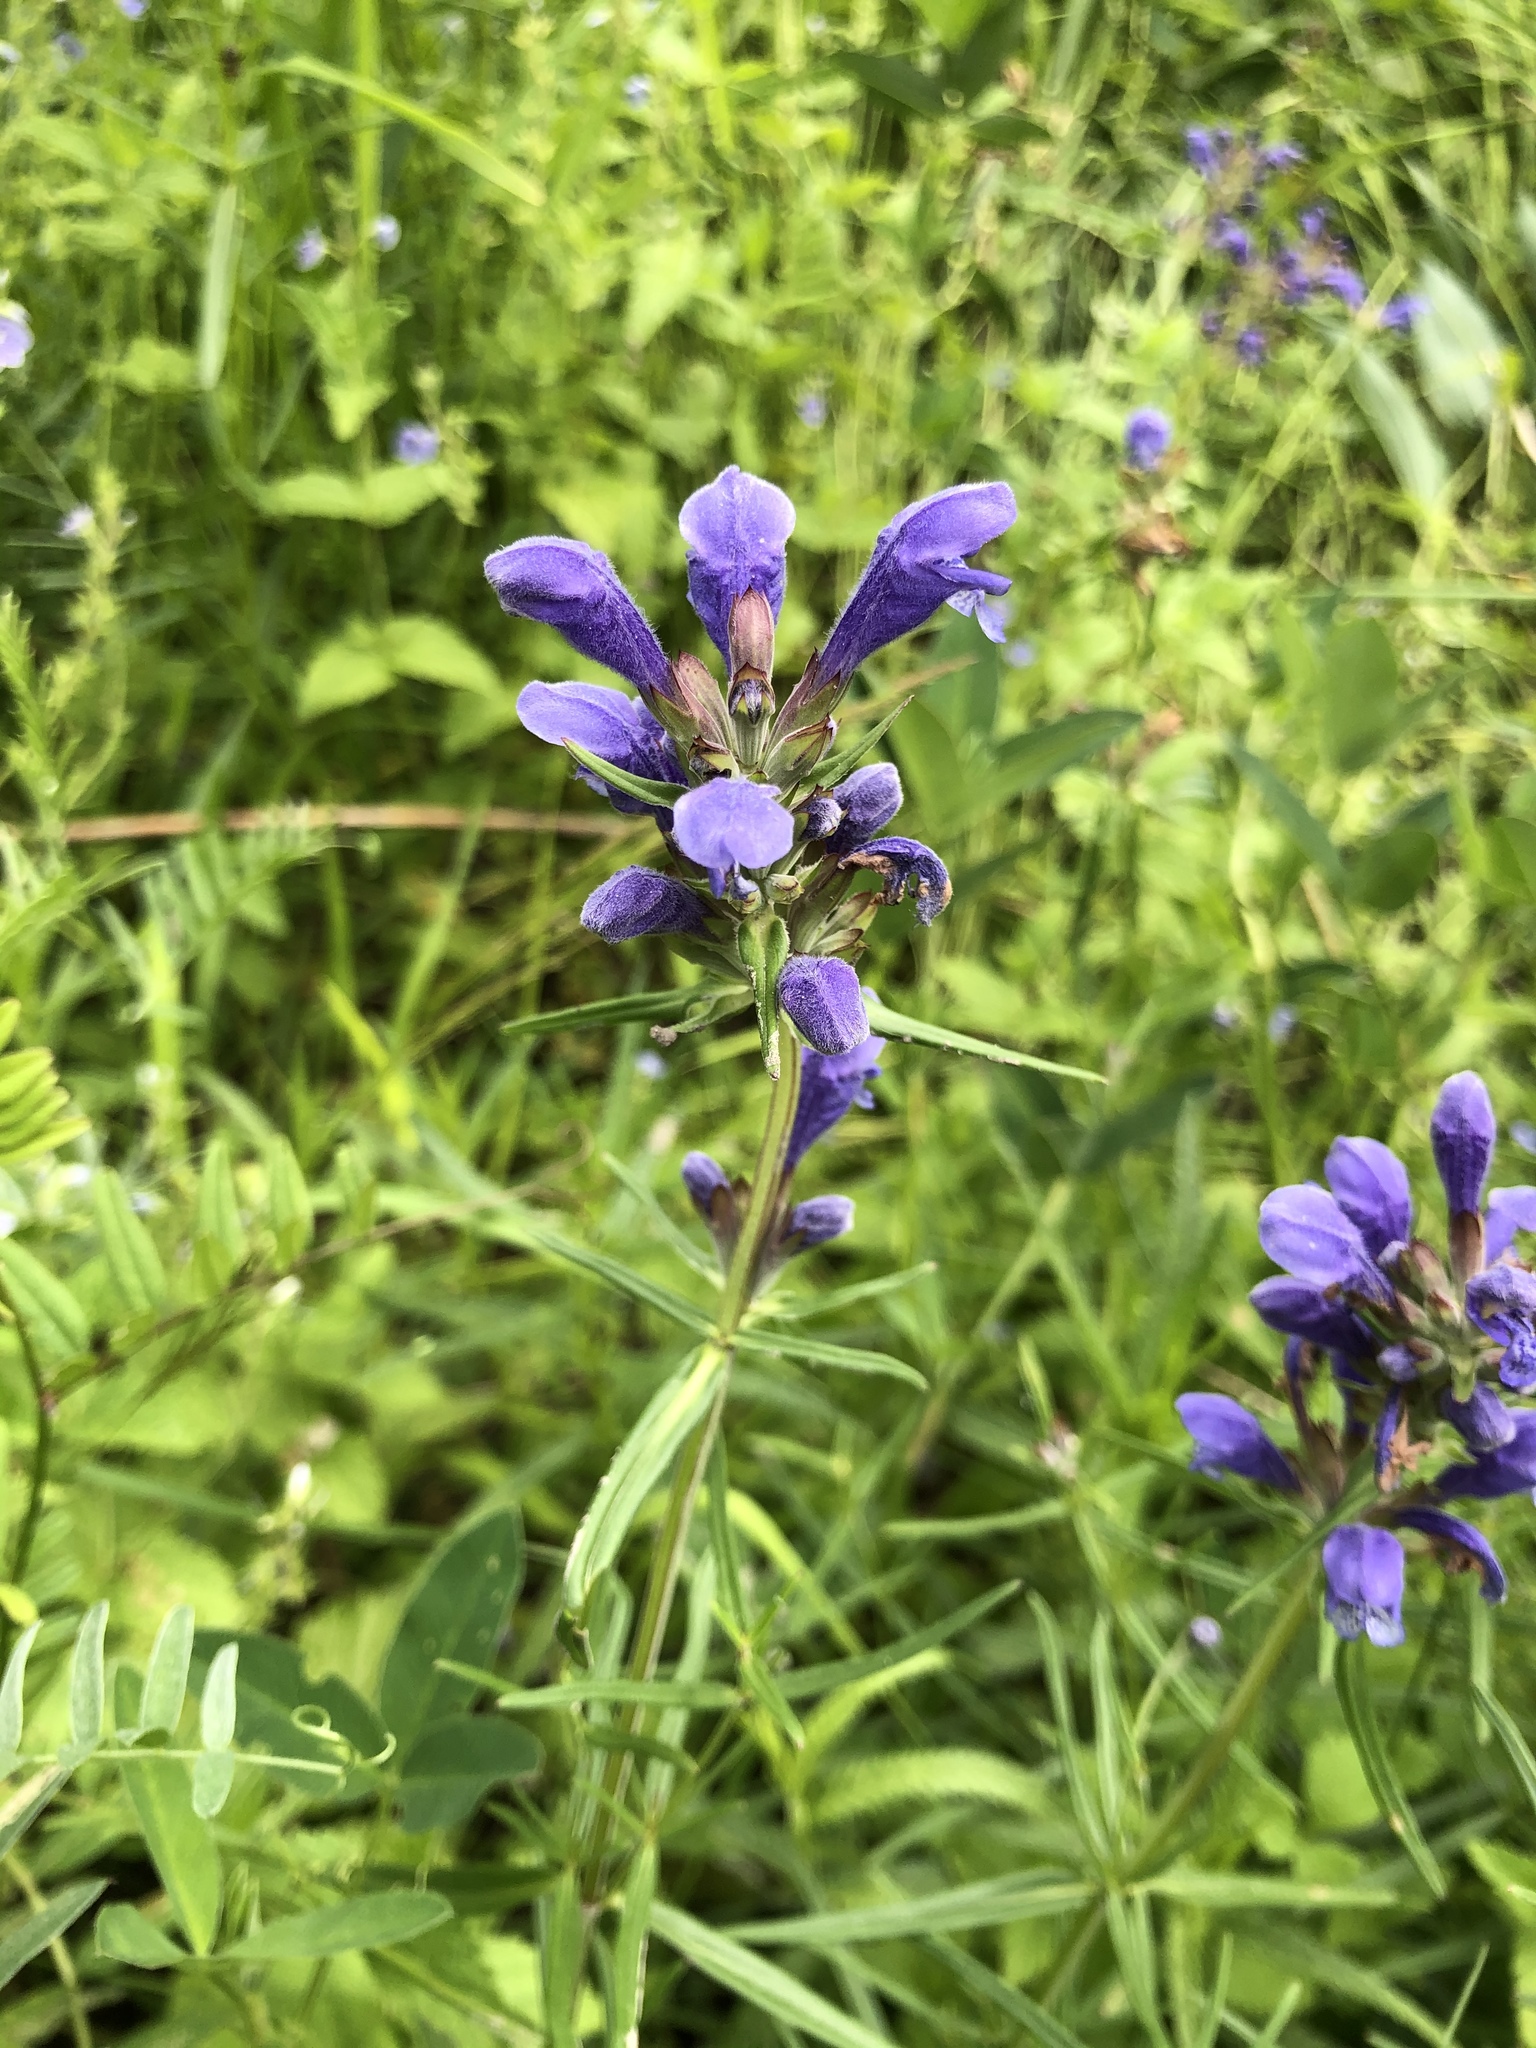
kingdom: Plantae
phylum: Tracheophyta
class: Magnoliopsida
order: Lamiales
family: Lamiaceae
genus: Dracocephalum
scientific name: Dracocephalum ruyschiana
